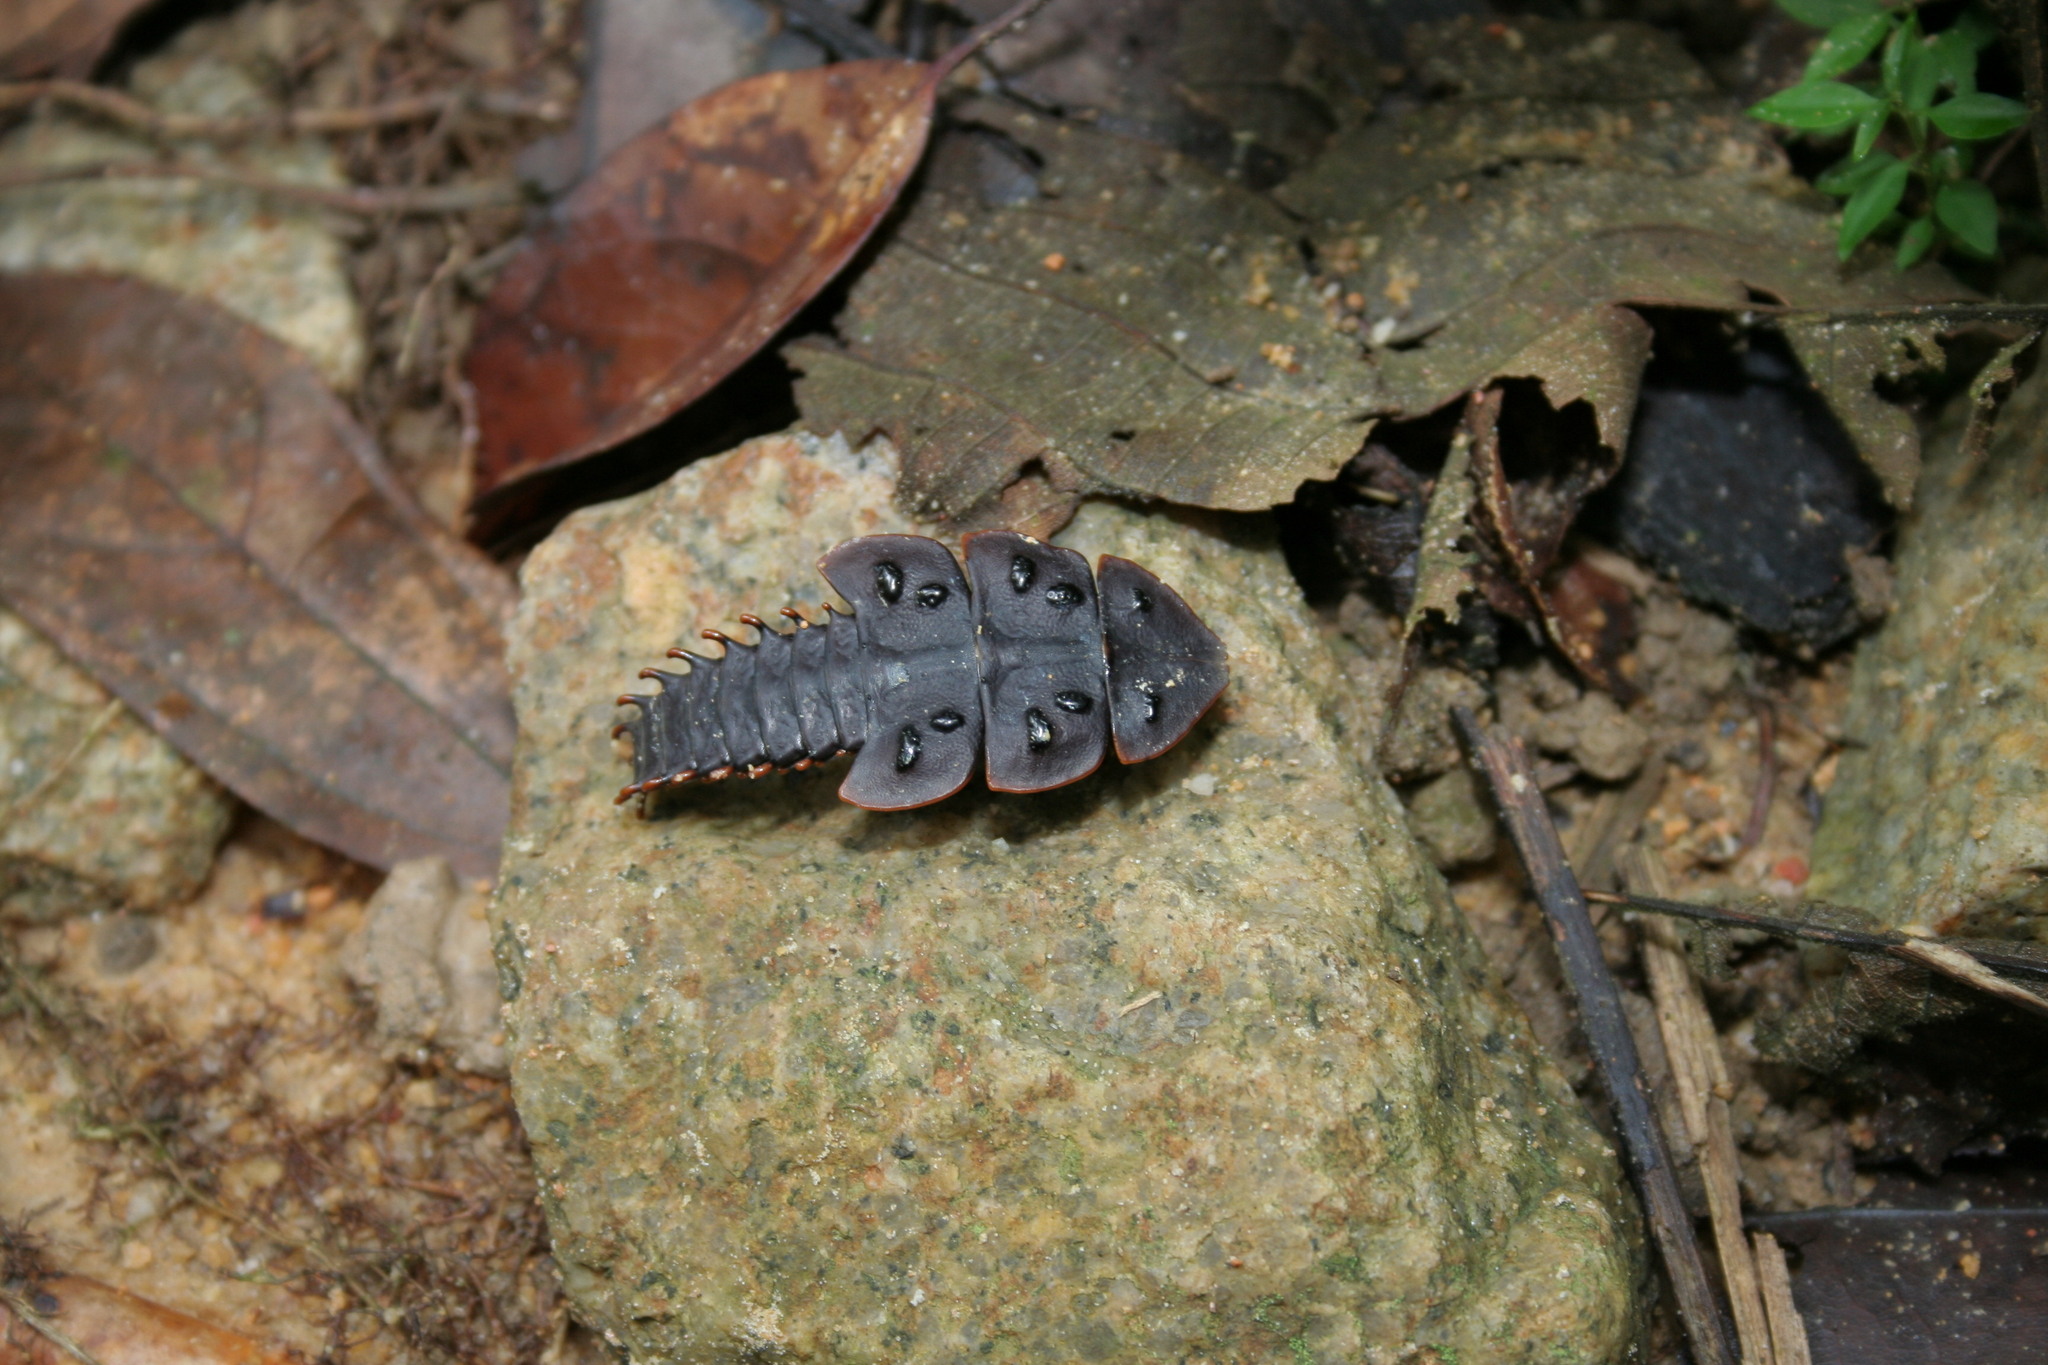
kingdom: Animalia
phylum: Arthropoda
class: Insecta
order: Coleoptera
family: Lycidae
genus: Platerodrilus
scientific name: Platerodrilus ruficollis
